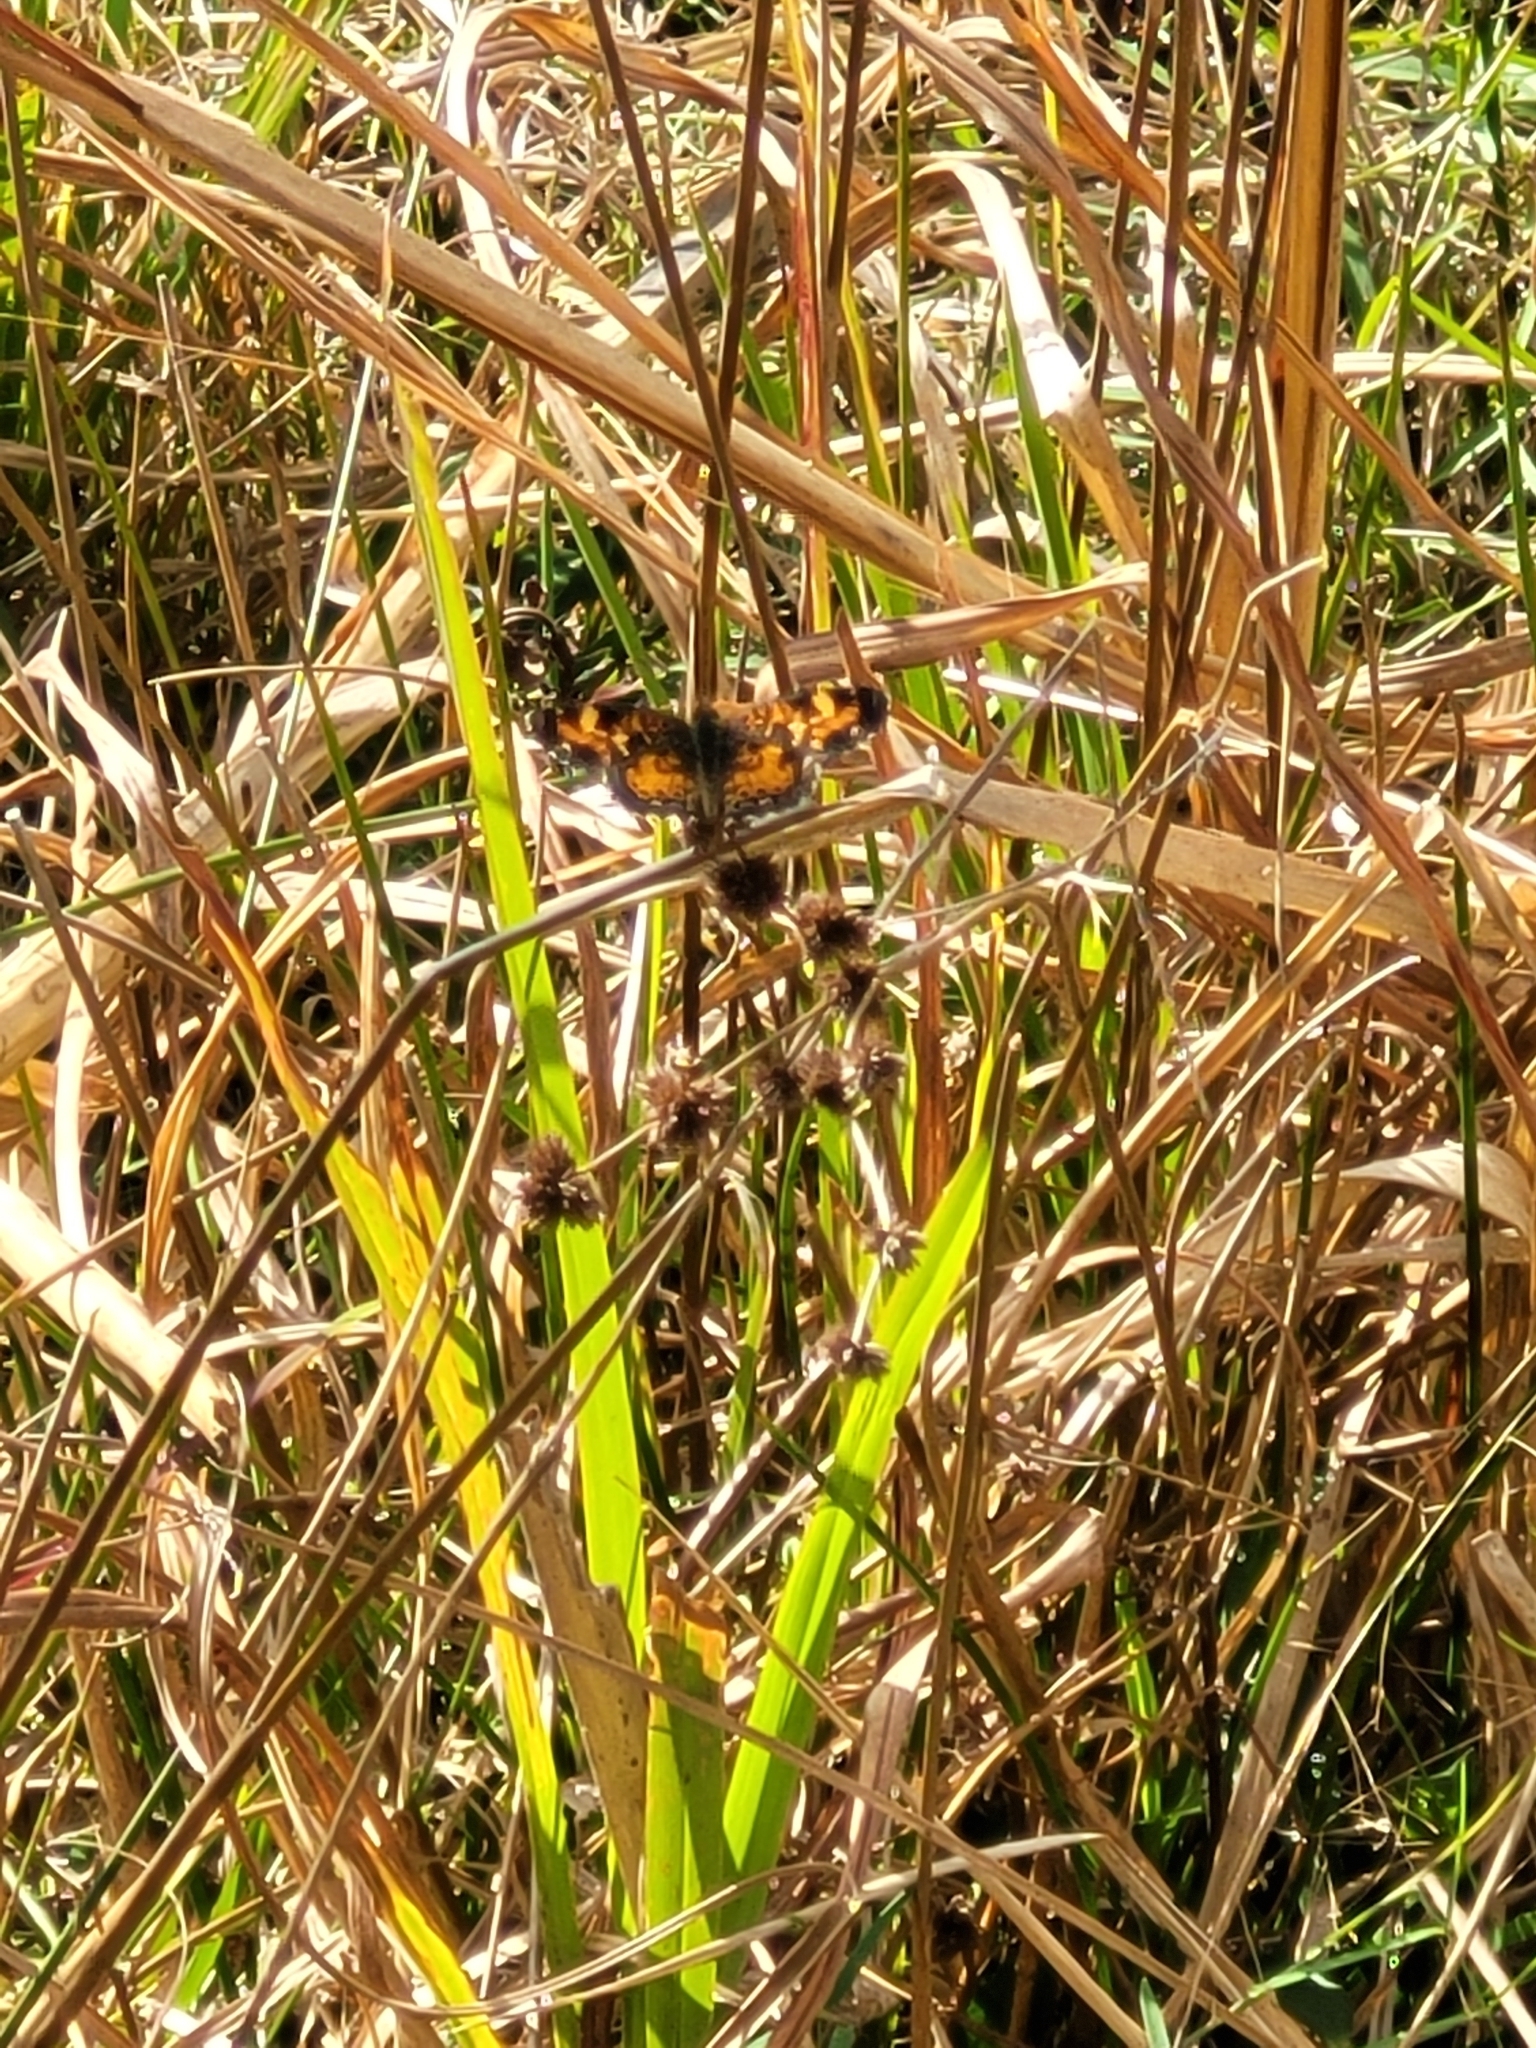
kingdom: Animalia
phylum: Arthropoda
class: Insecta
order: Lepidoptera
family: Nymphalidae
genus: Phyciodes
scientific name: Phyciodes phaon
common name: Phaon crescent
